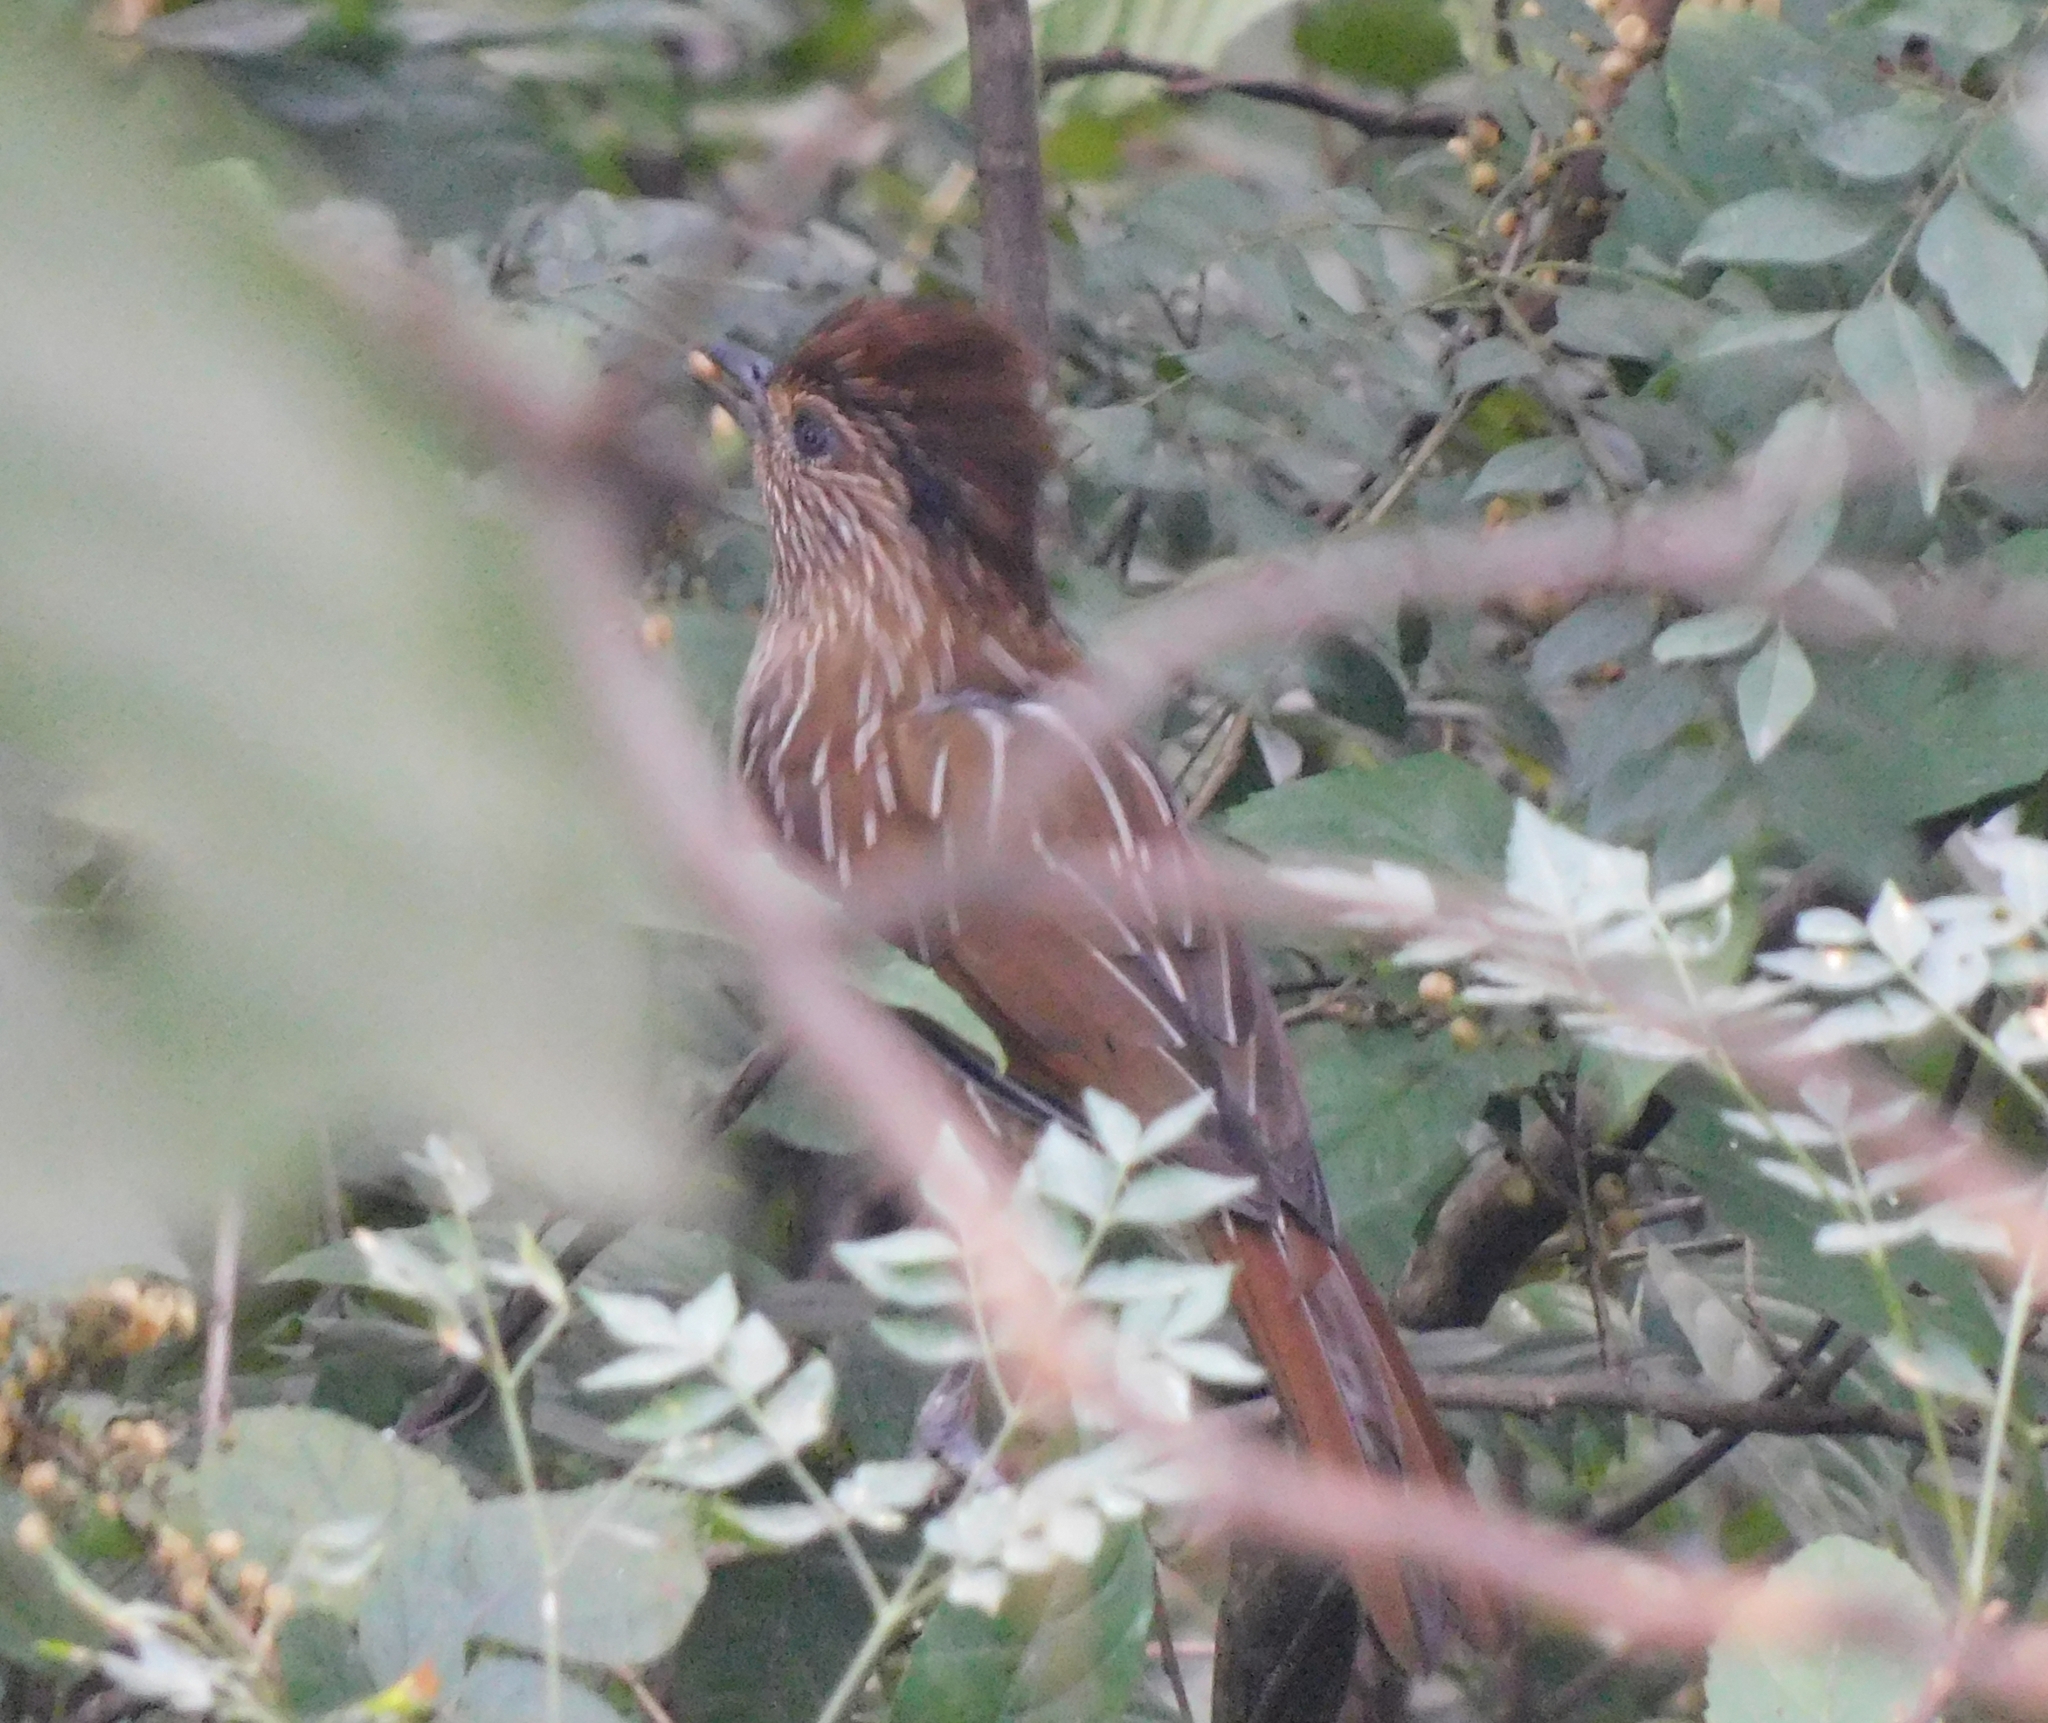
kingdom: Animalia
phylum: Chordata
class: Aves
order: Passeriformes
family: Leiothrichidae
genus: Garrulax
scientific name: Garrulax striatus
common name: Striated laughingthrush
